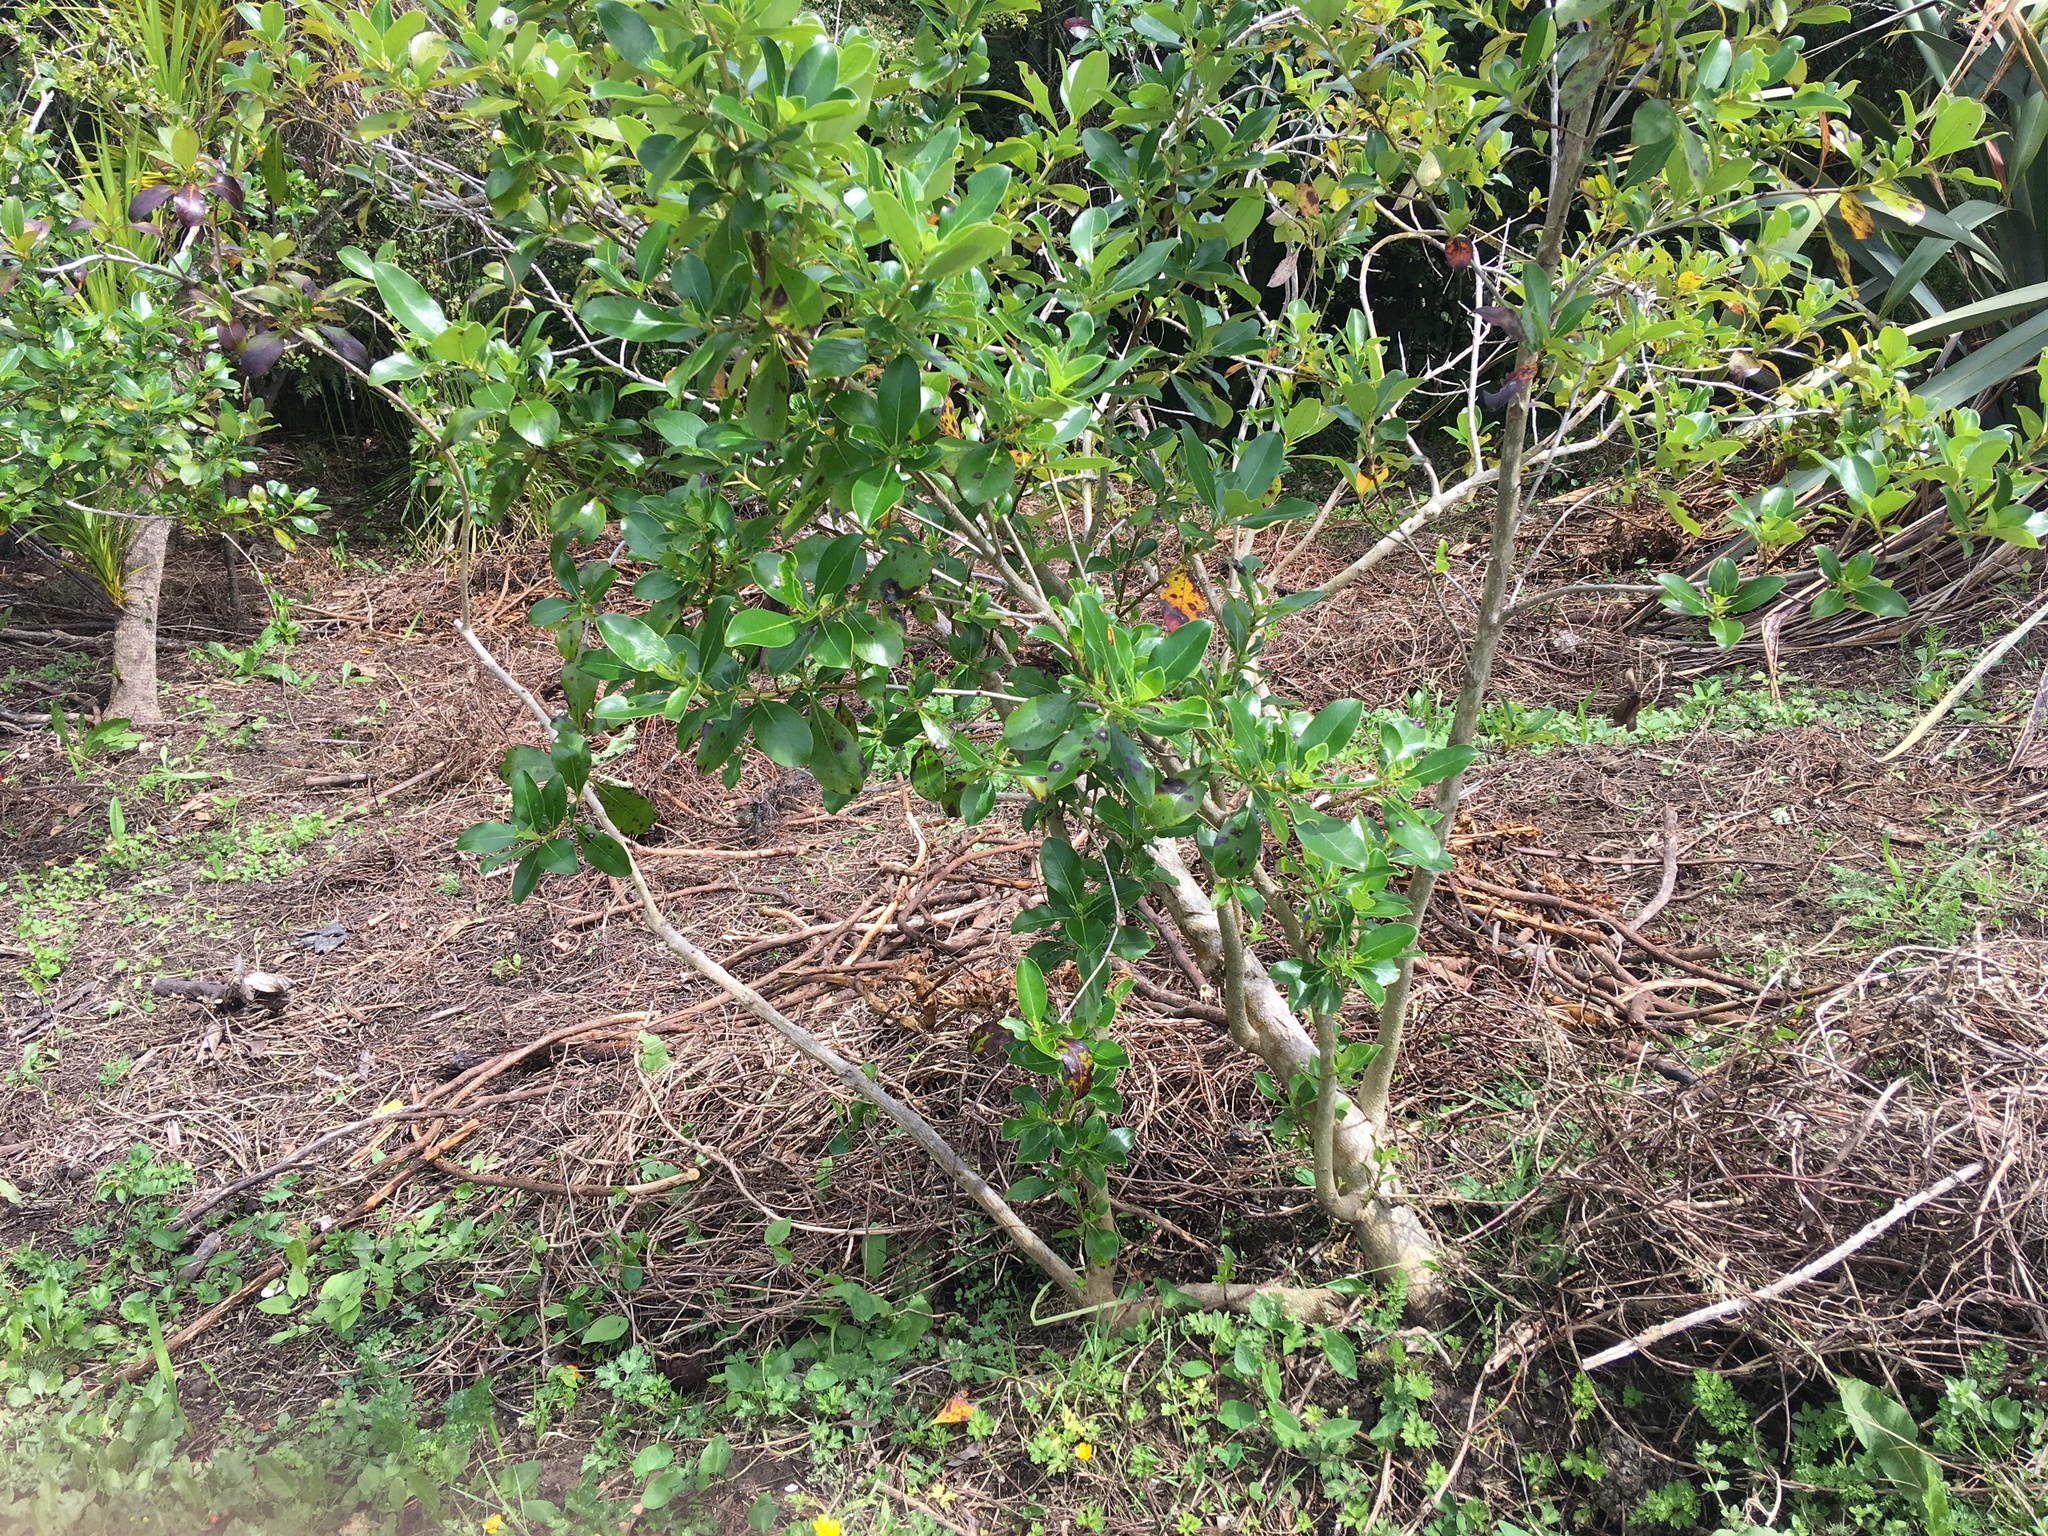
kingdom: Plantae
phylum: Tracheophyta
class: Magnoliopsida
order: Gentianales
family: Rubiaceae
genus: Coprosma
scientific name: Coprosma robusta
